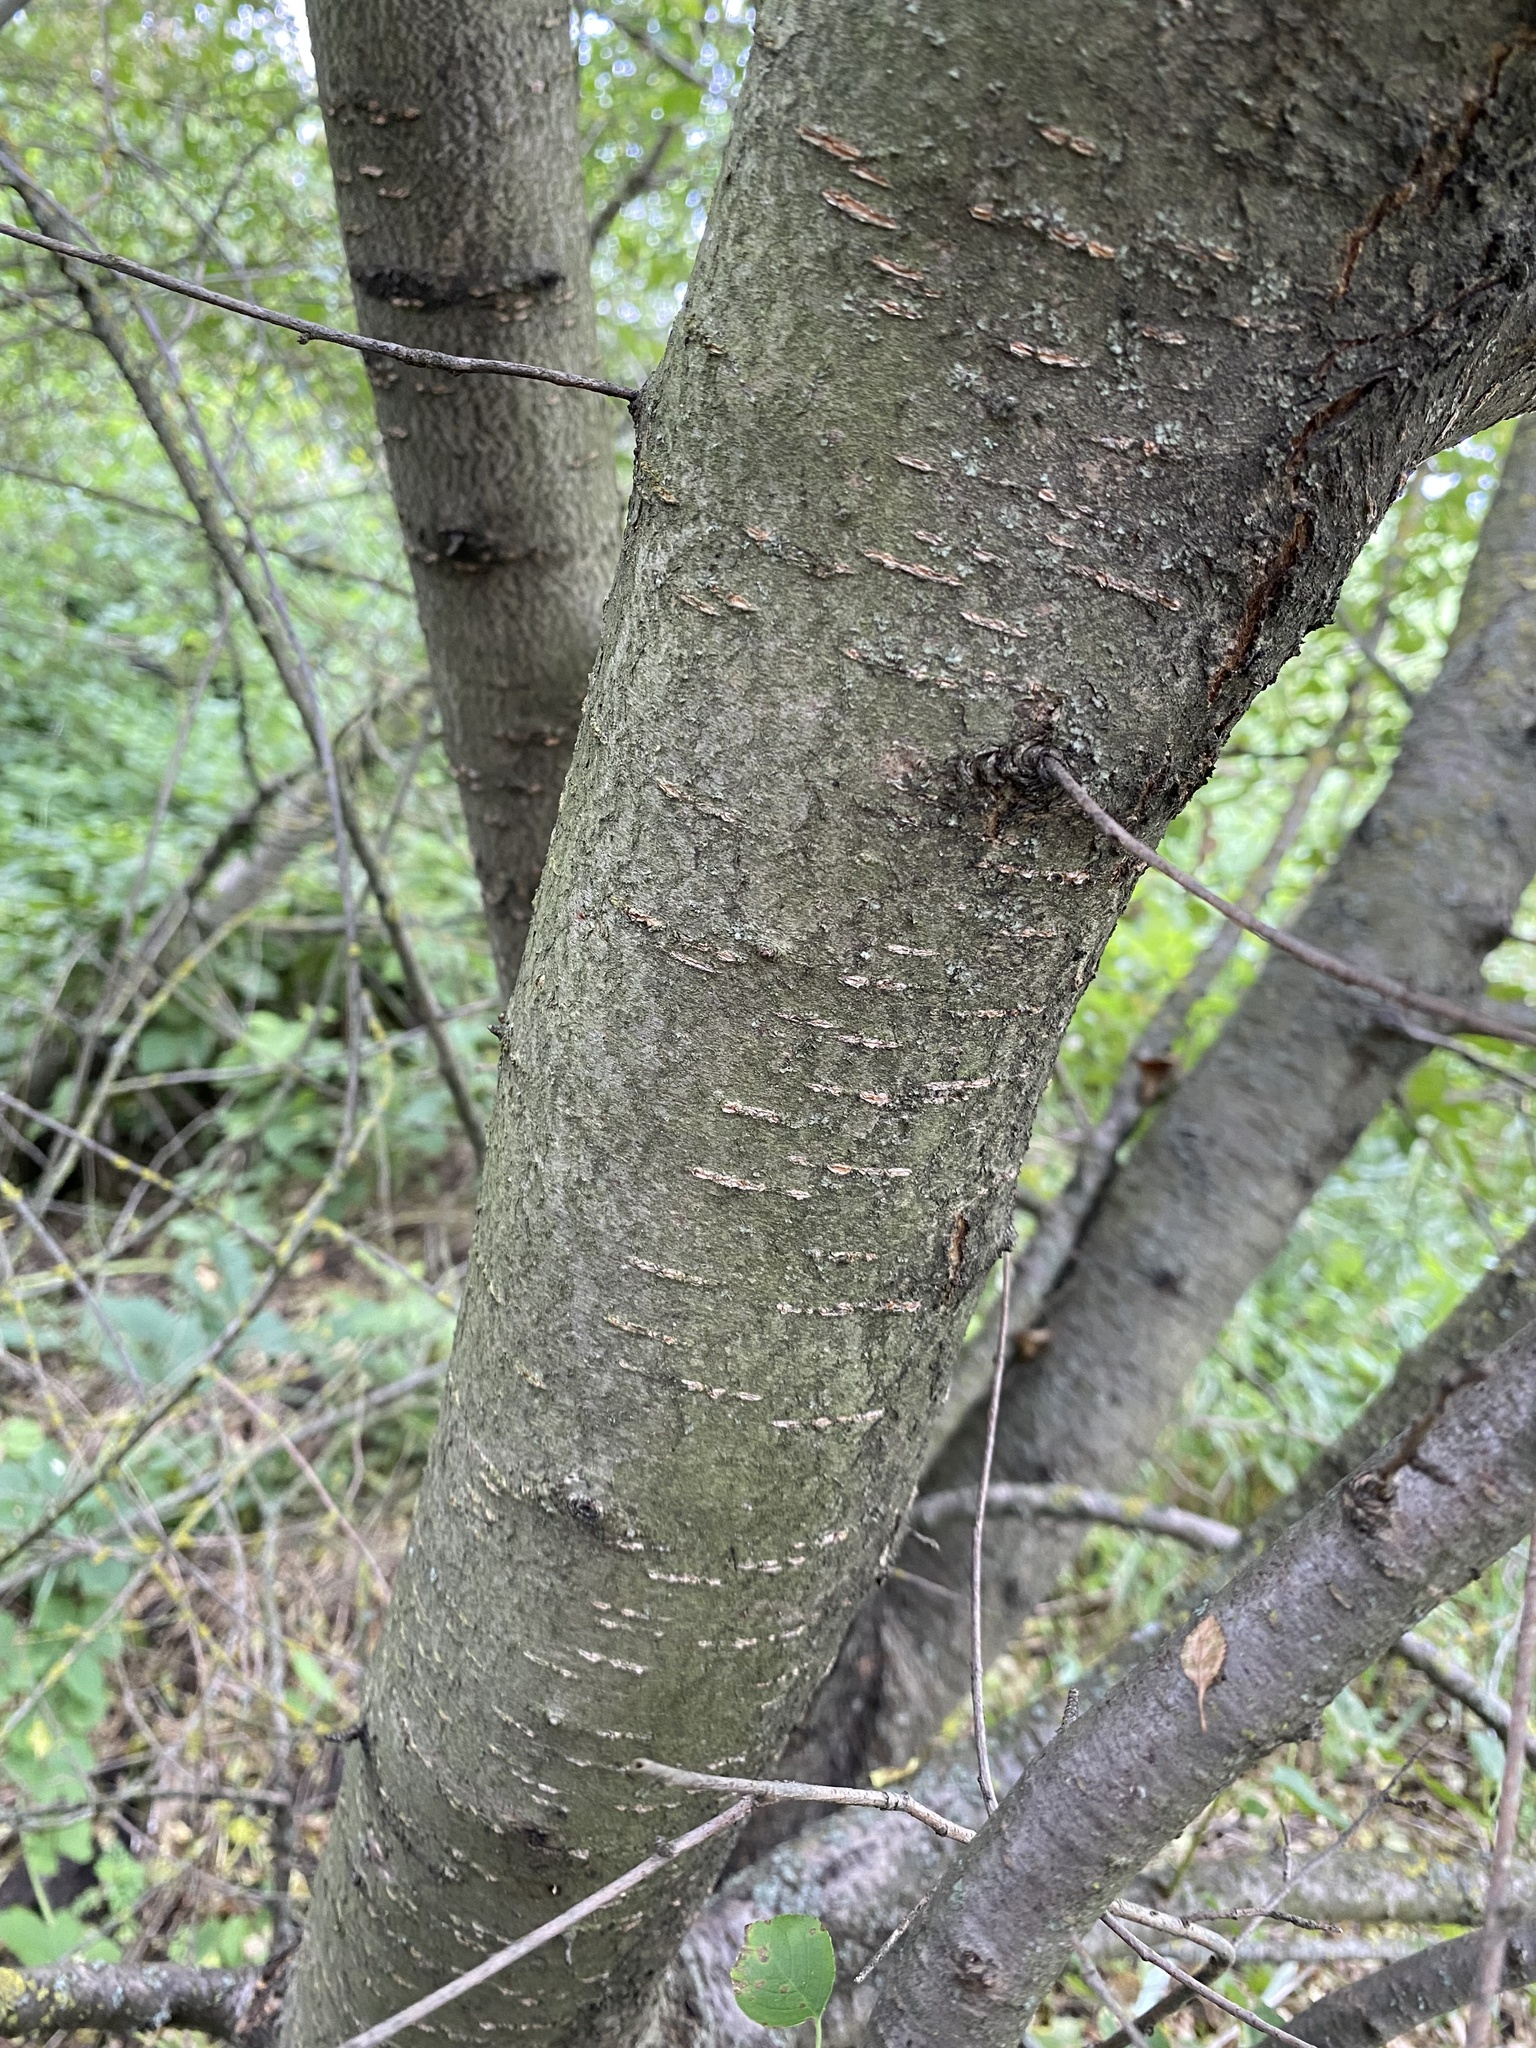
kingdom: Plantae
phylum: Tracheophyta
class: Magnoliopsida
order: Rosales
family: Rosaceae
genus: Prunus
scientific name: Prunus mahaleb
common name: Mahaleb cherry
